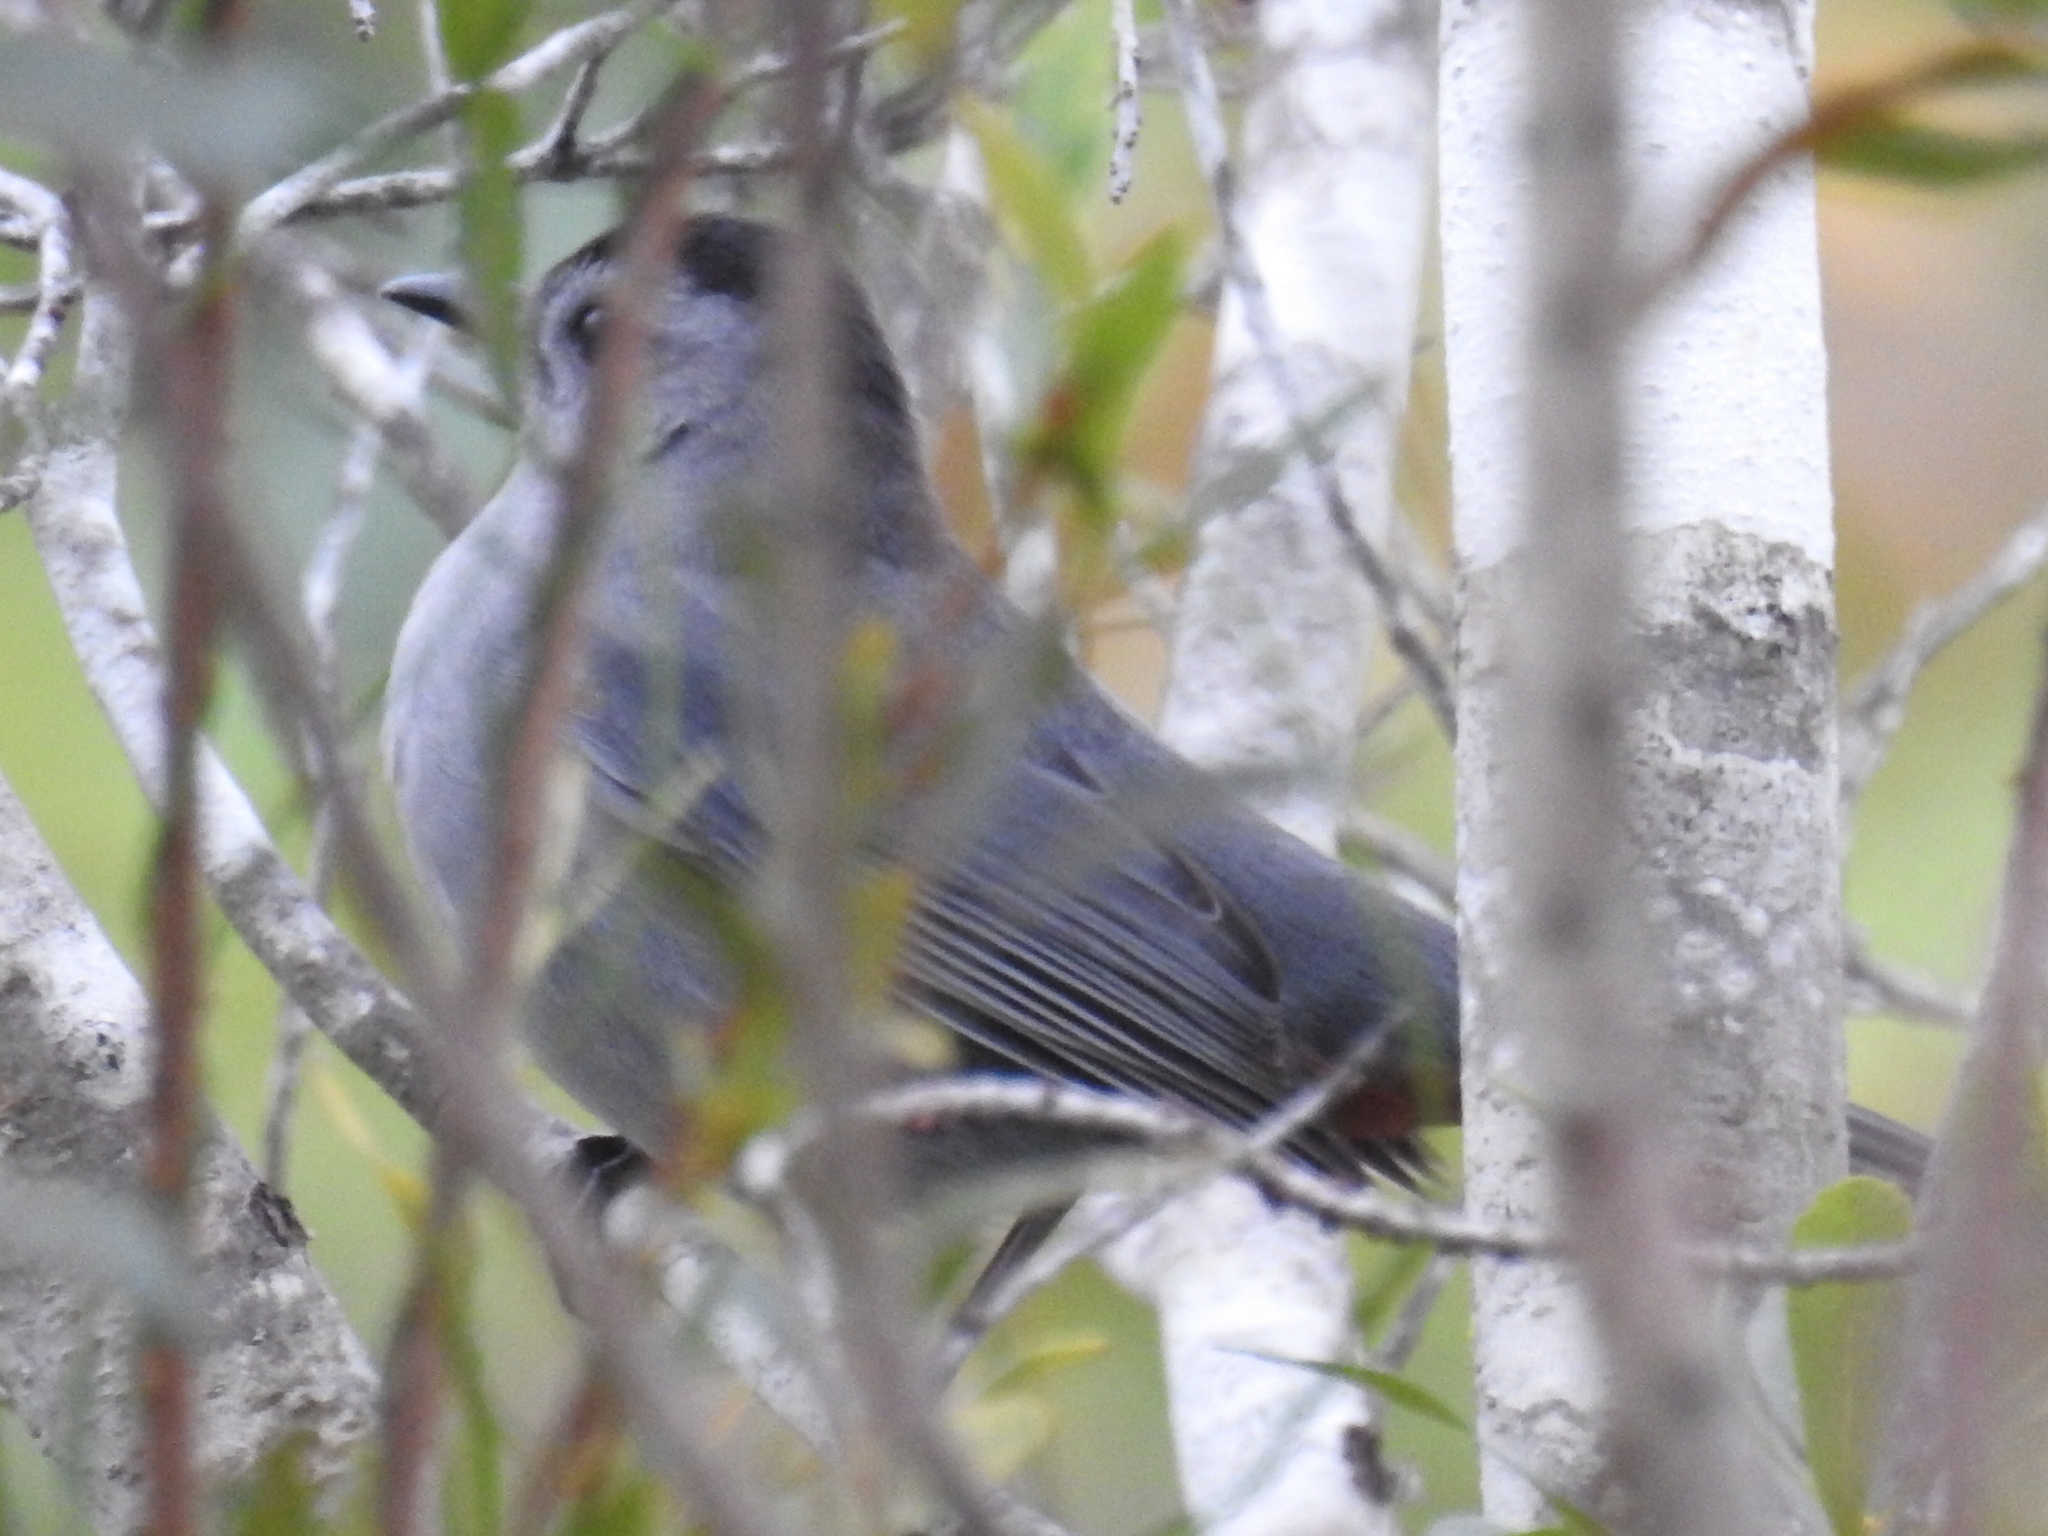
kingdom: Animalia
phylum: Chordata
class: Aves
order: Passeriformes
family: Mimidae
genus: Dumetella
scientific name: Dumetella carolinensis
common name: Gray catbird
